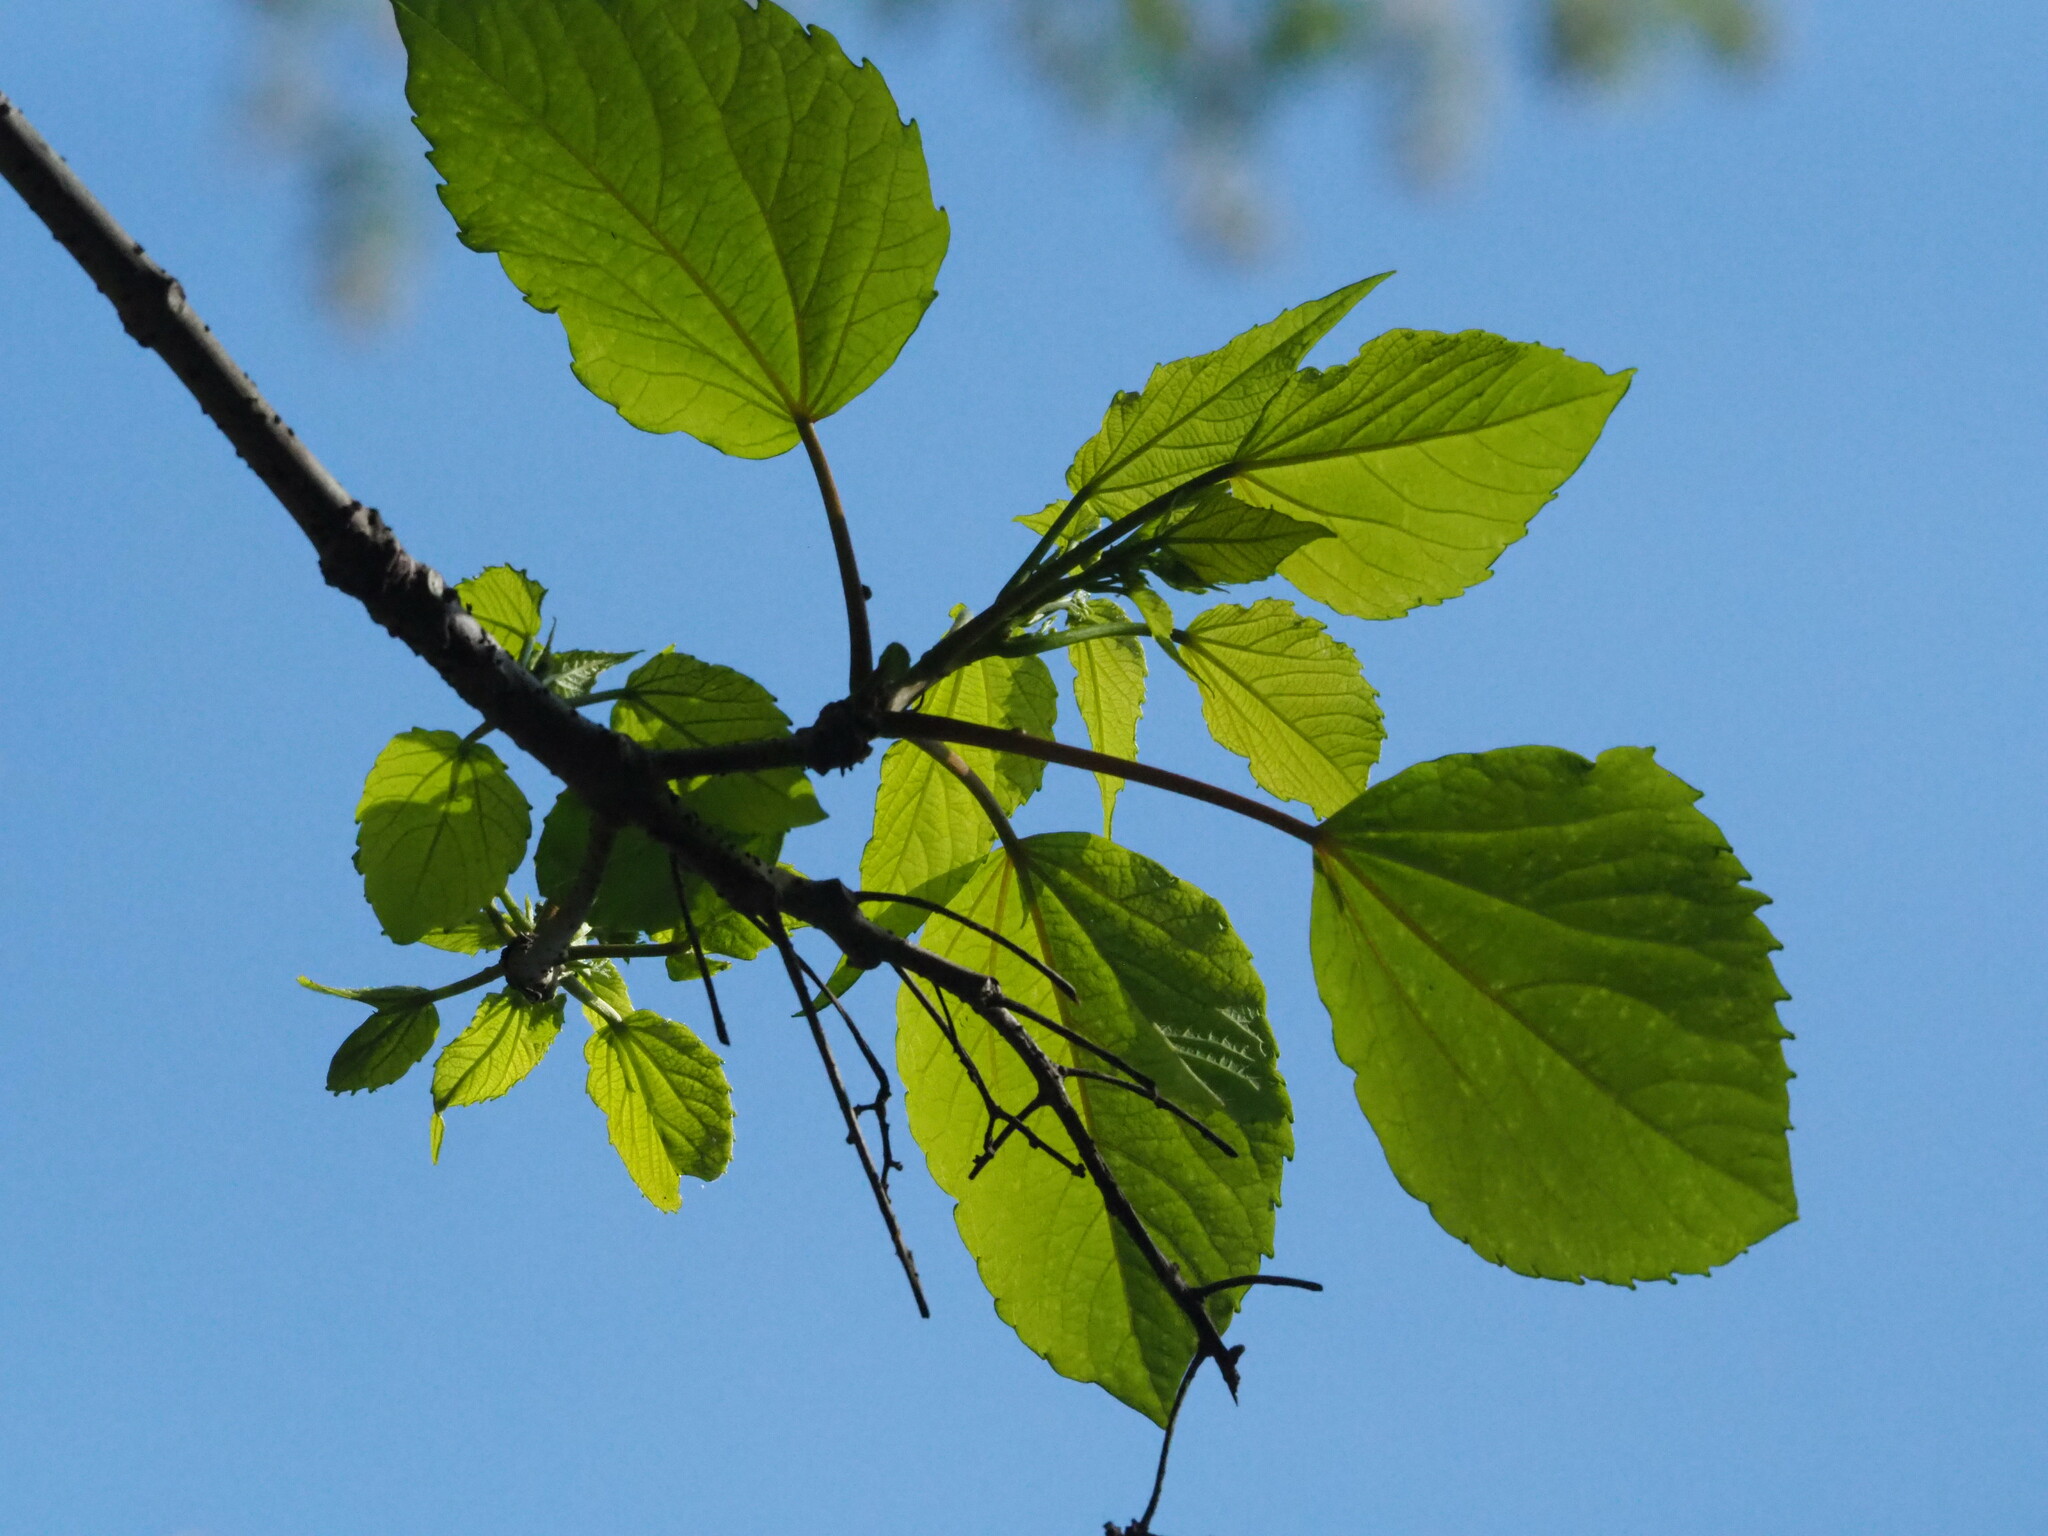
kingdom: Plantae
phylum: Tracheophyta
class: Magnoliopsida
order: Malpighiales
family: Salicaceae
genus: Idesia
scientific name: Idesia polycarpa
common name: Idesia tree
